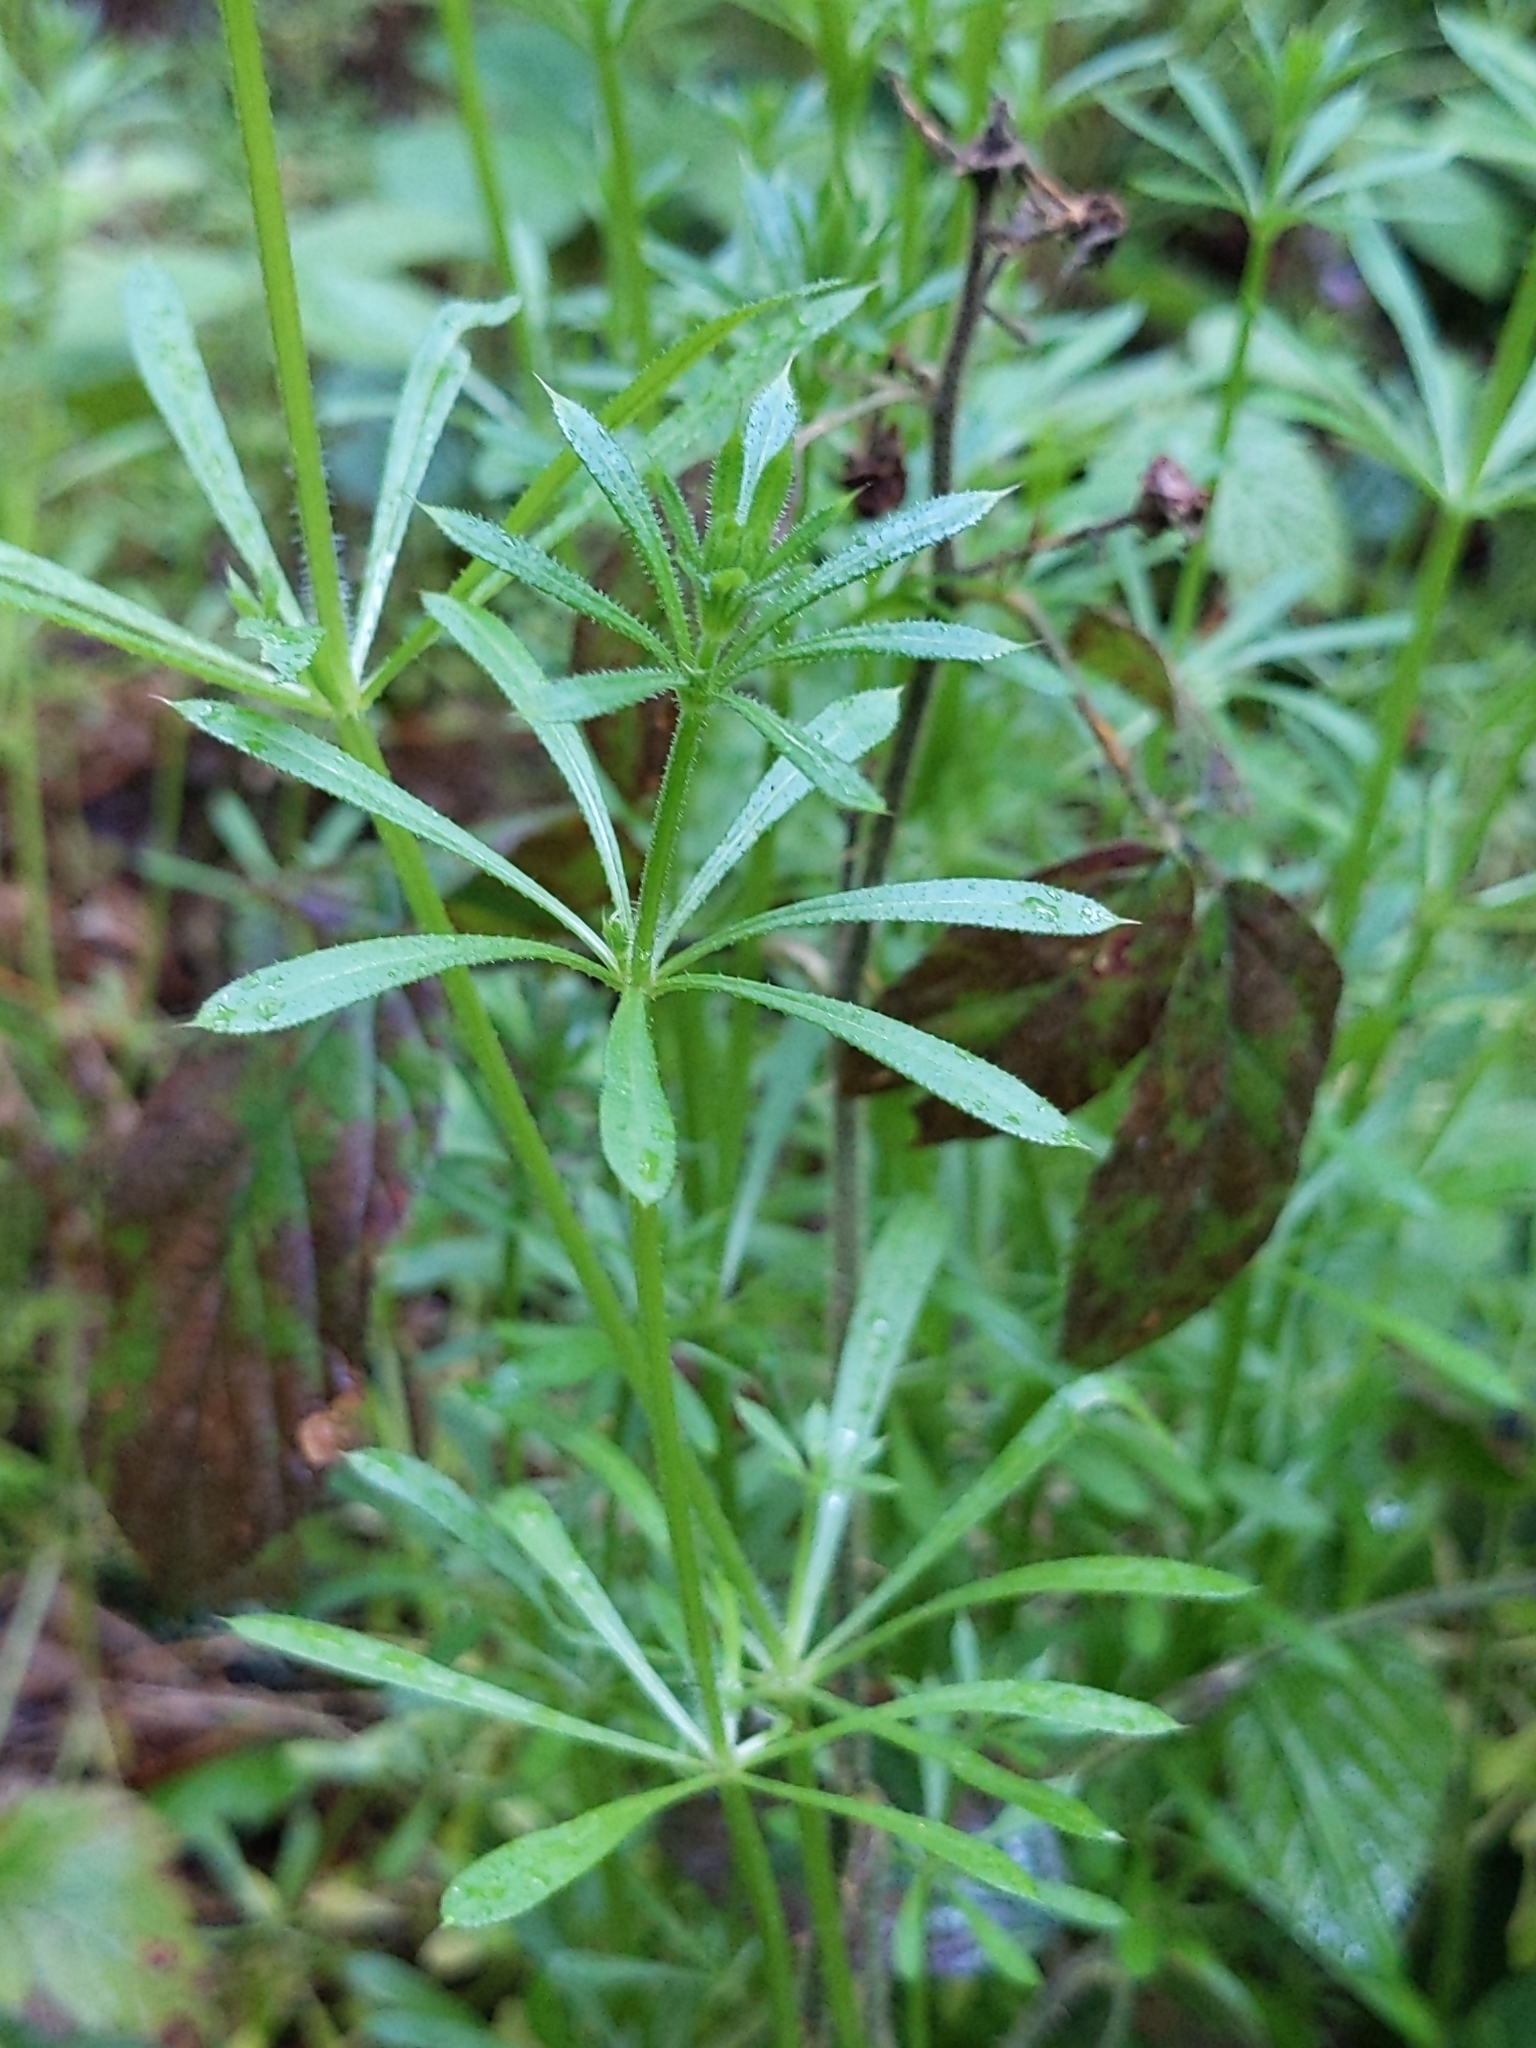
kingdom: Plantae
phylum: Tracheophyta
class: Magnoliopsida
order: Gentianales
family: Rubiaceae
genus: Galium
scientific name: Galium aparine
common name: Cleavers
